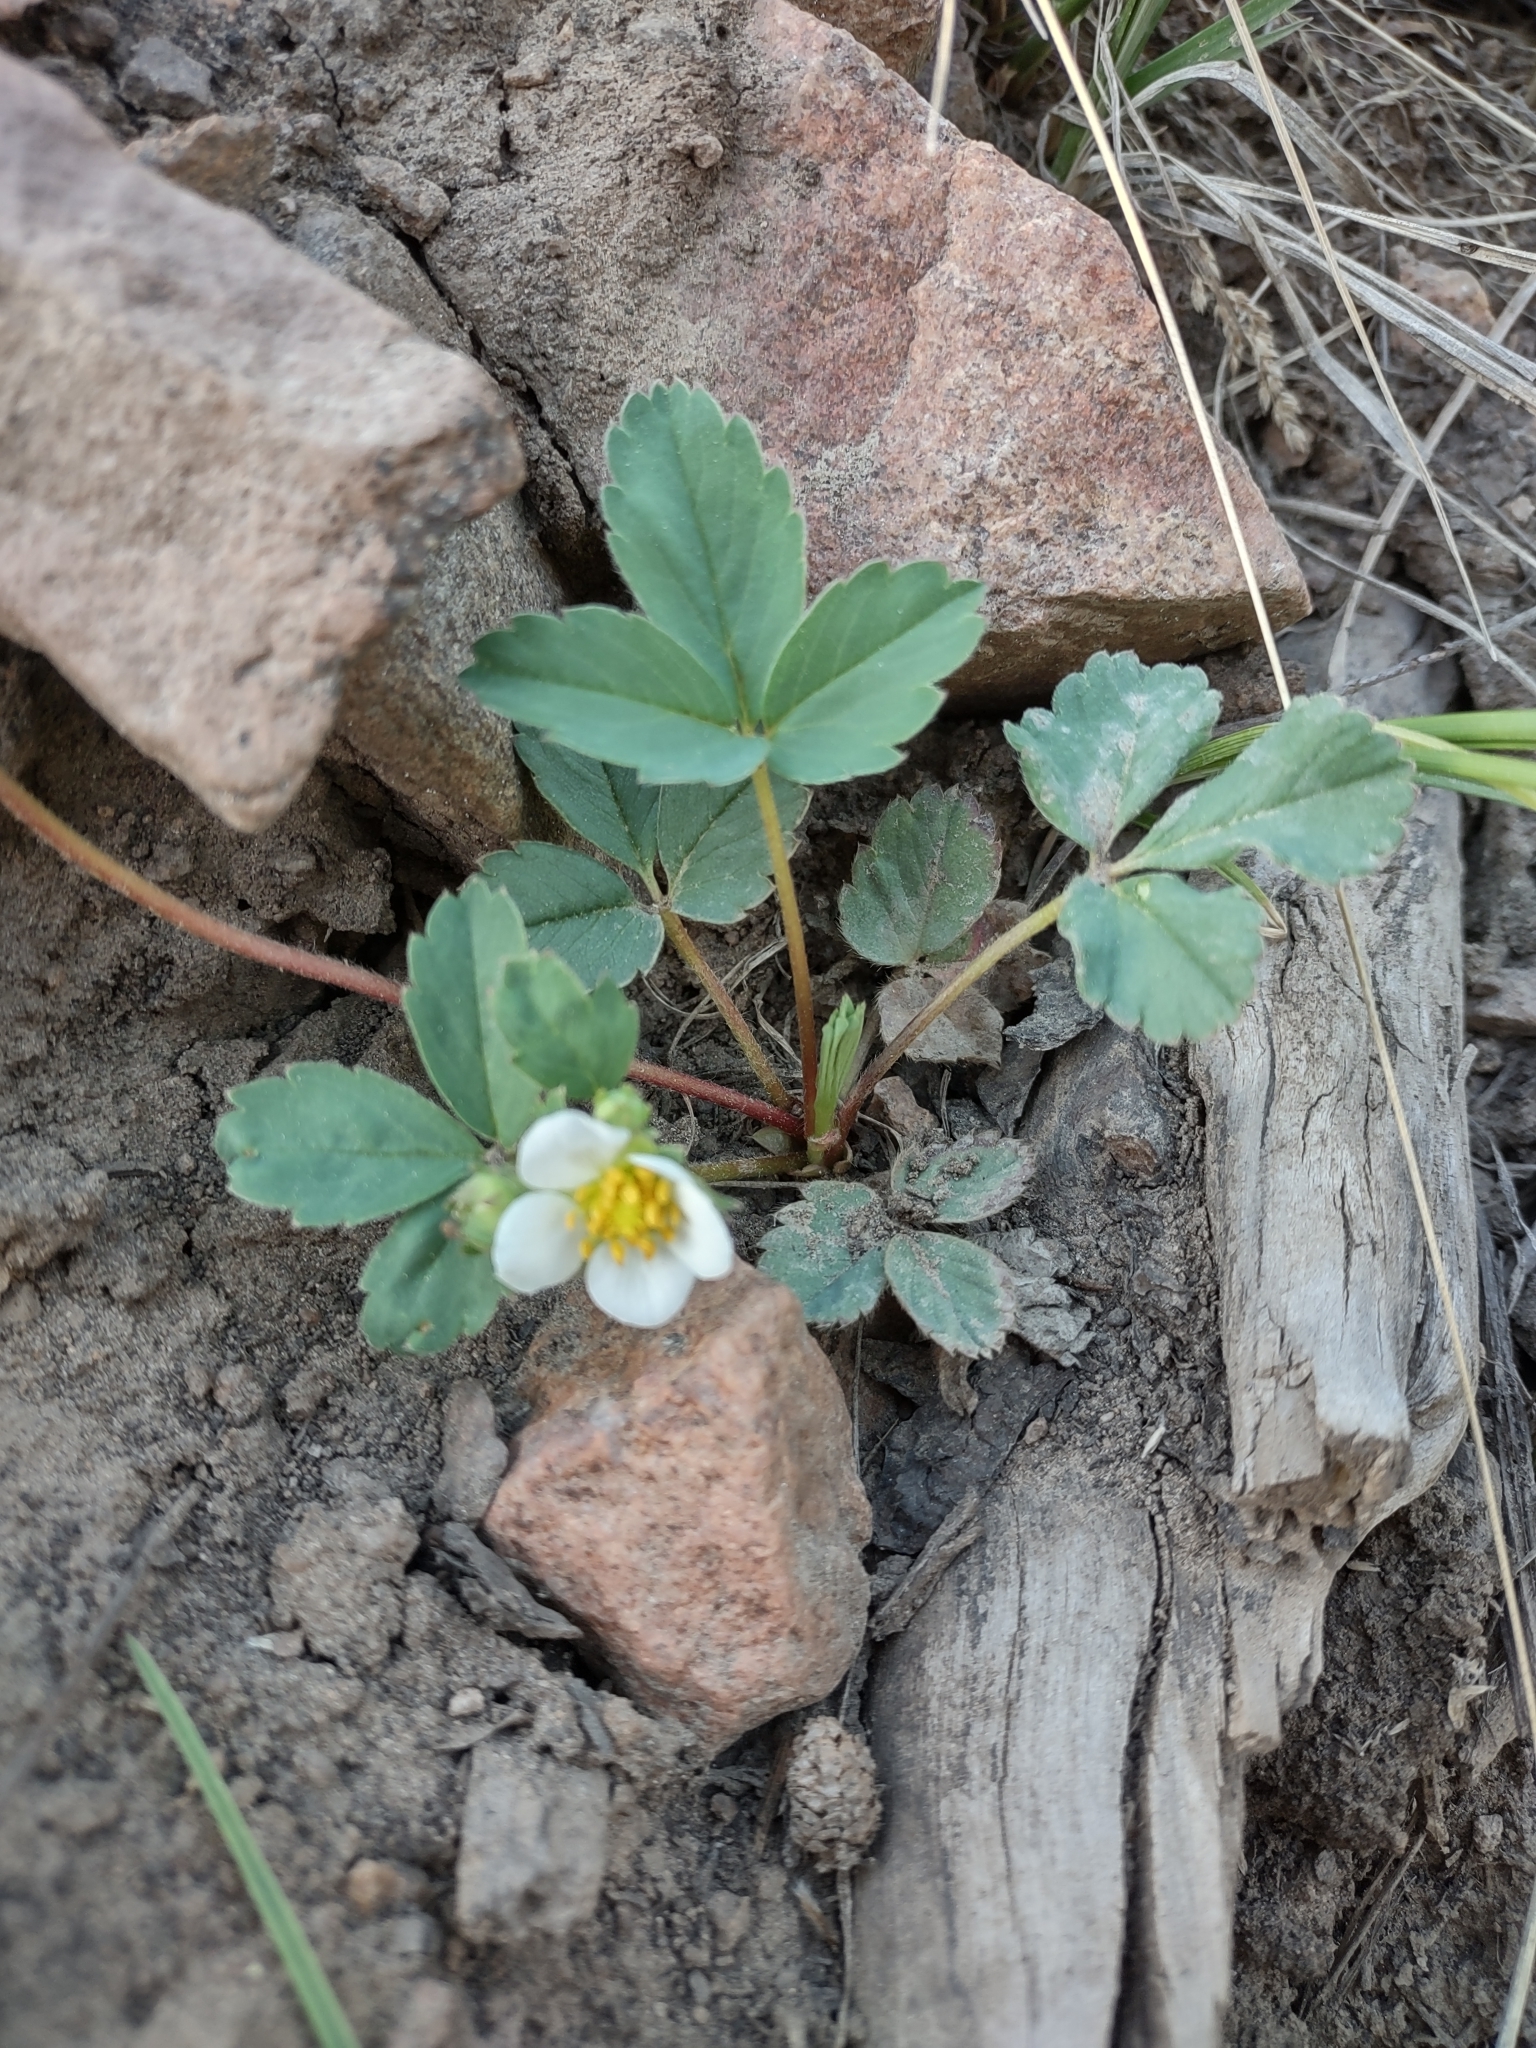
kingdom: Plantae
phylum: Tracheophyta
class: Magnoliopsida
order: Rosales
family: Rosaceae
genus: Fragaria
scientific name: Fragaria virginiana
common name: Thickleaved wild strawberry
